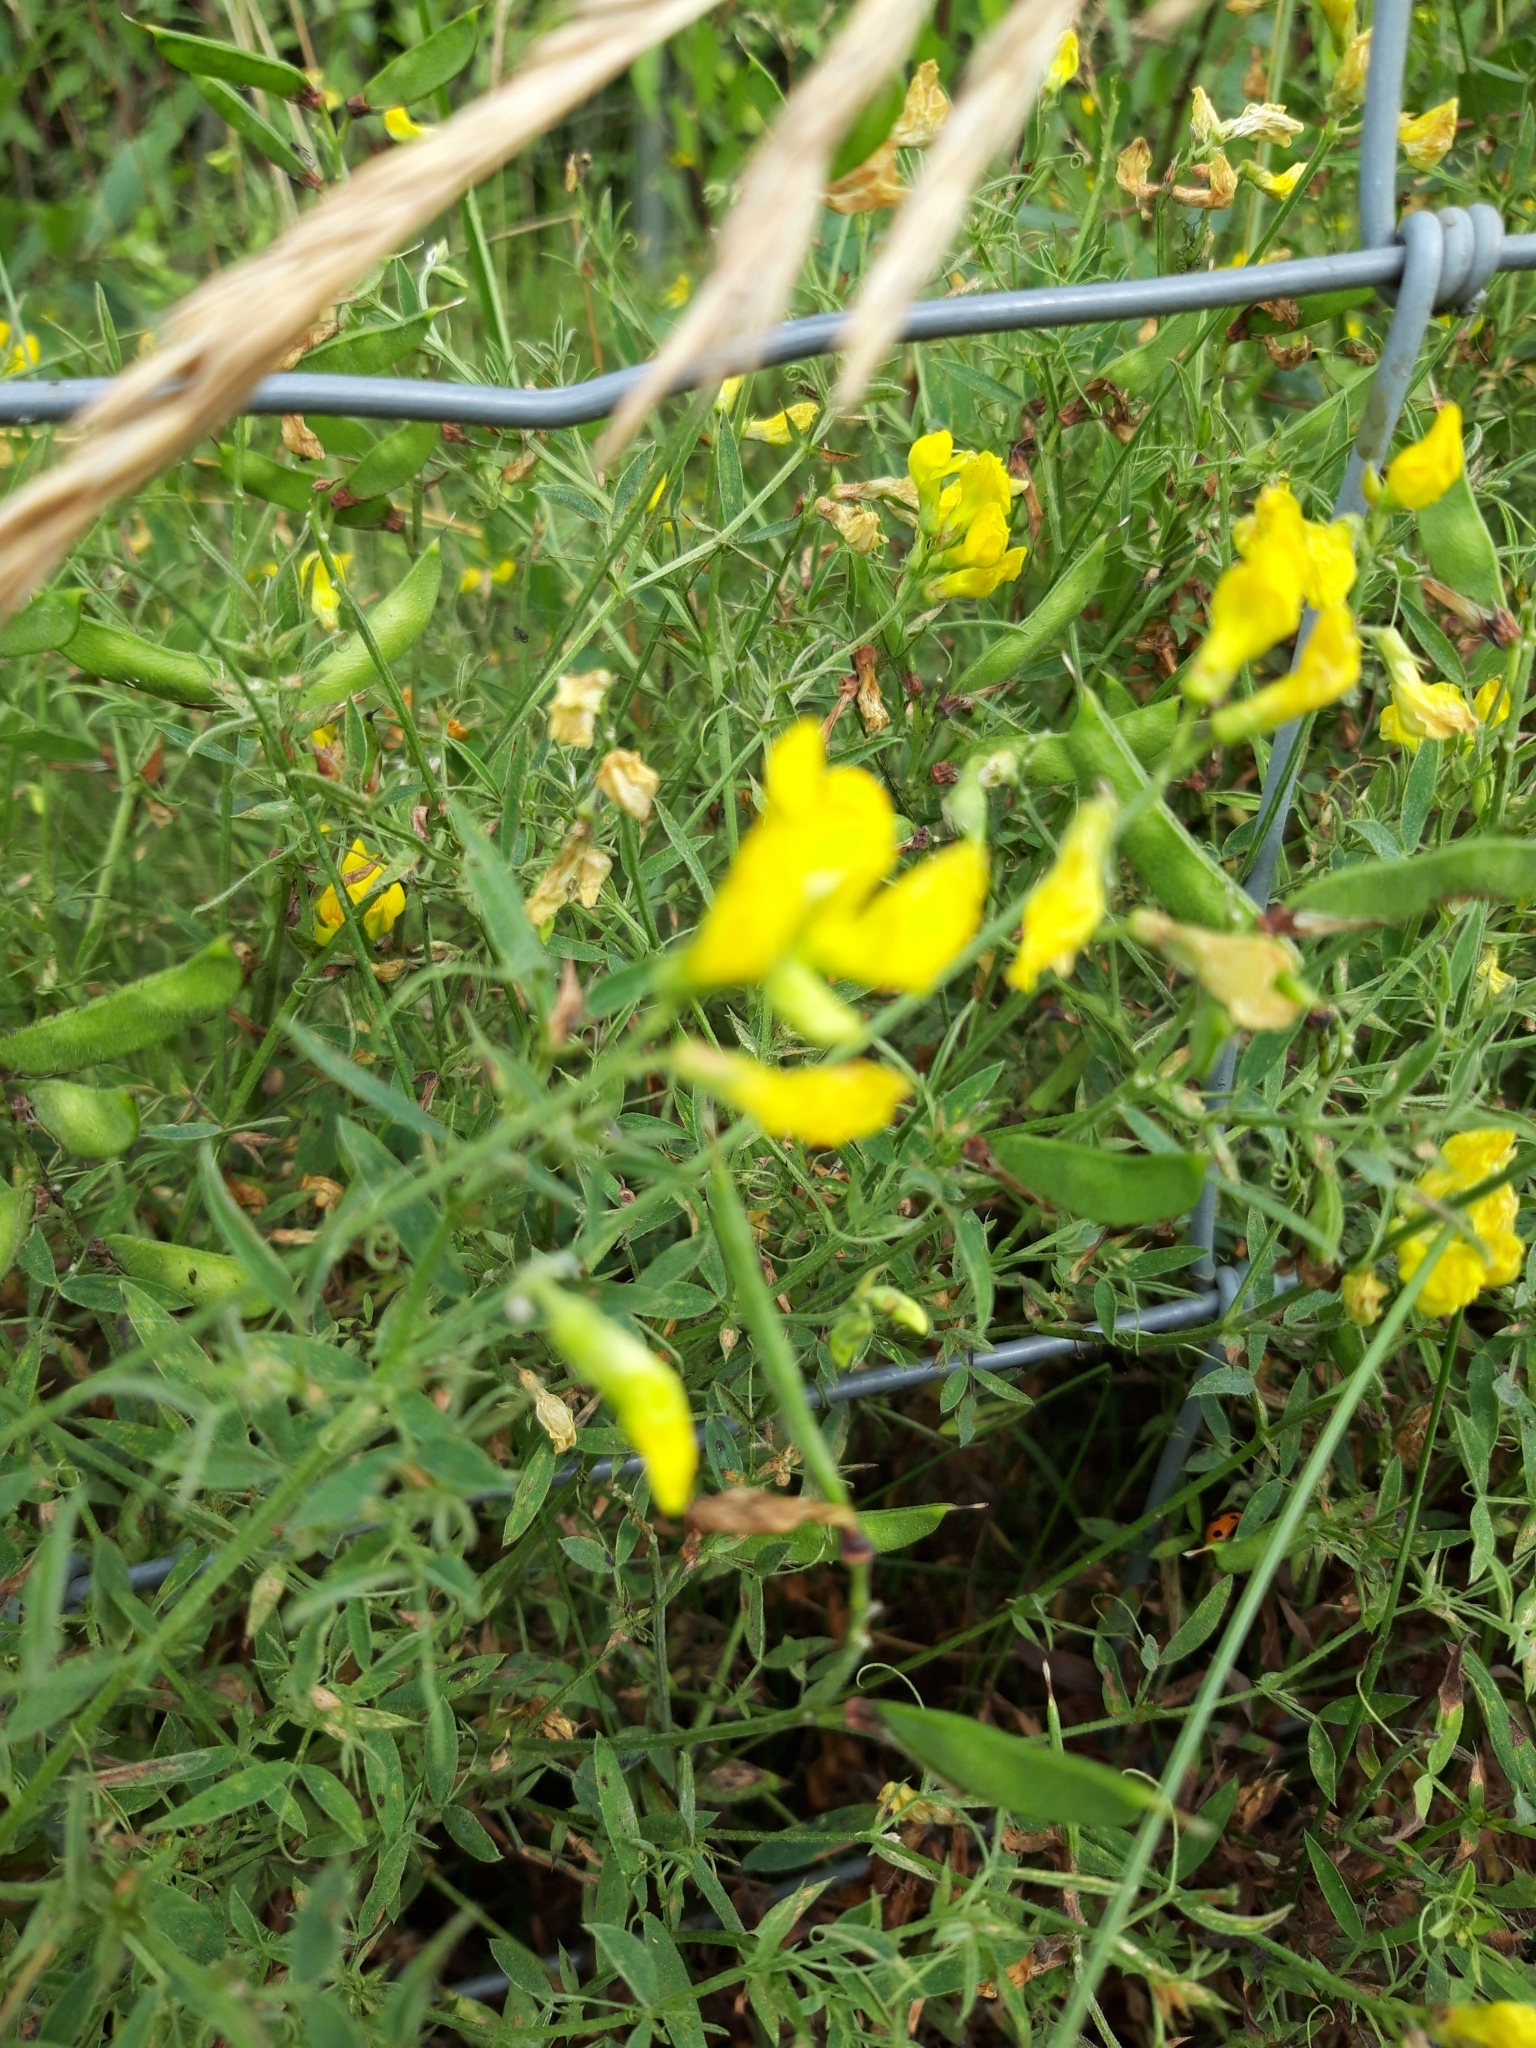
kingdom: Plantae
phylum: Tracheophyta
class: Magnoliopsida
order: Fabales
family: Fabaceae
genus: Lathyrus
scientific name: Lathyrus pratensis
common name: Meadow vetchling
